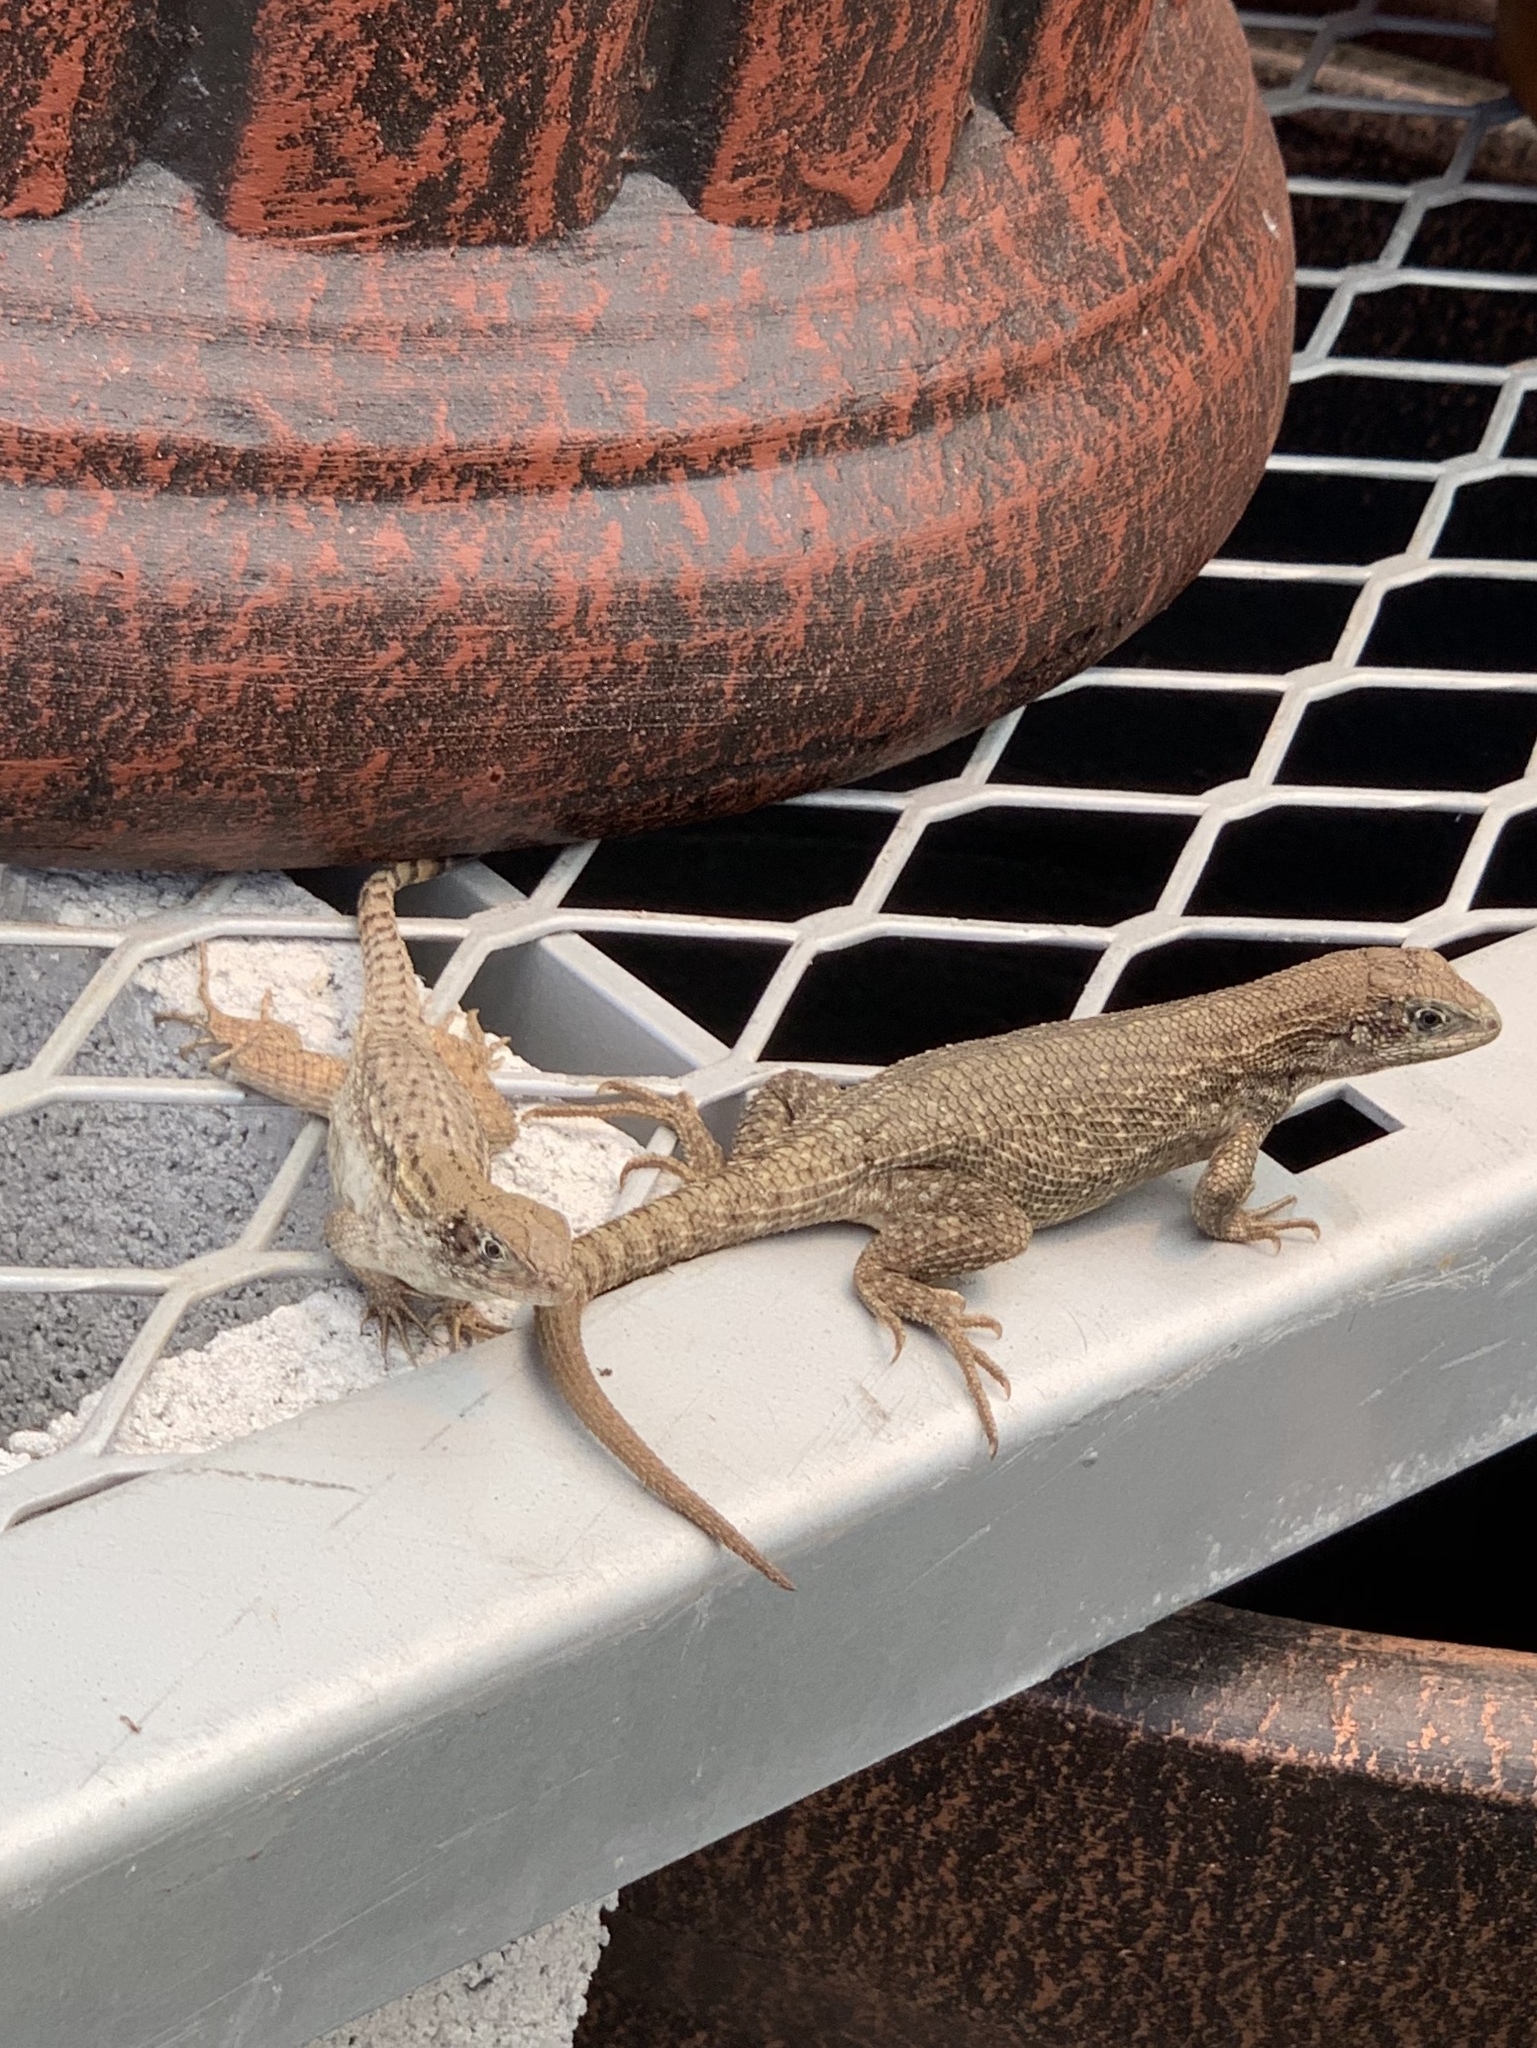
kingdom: Animalia
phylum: Chordata
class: Squamata
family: Leiocephalidae
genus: Leiocephalus
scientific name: Leiocephalus carinatus
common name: Northern curly-tailed lizard
